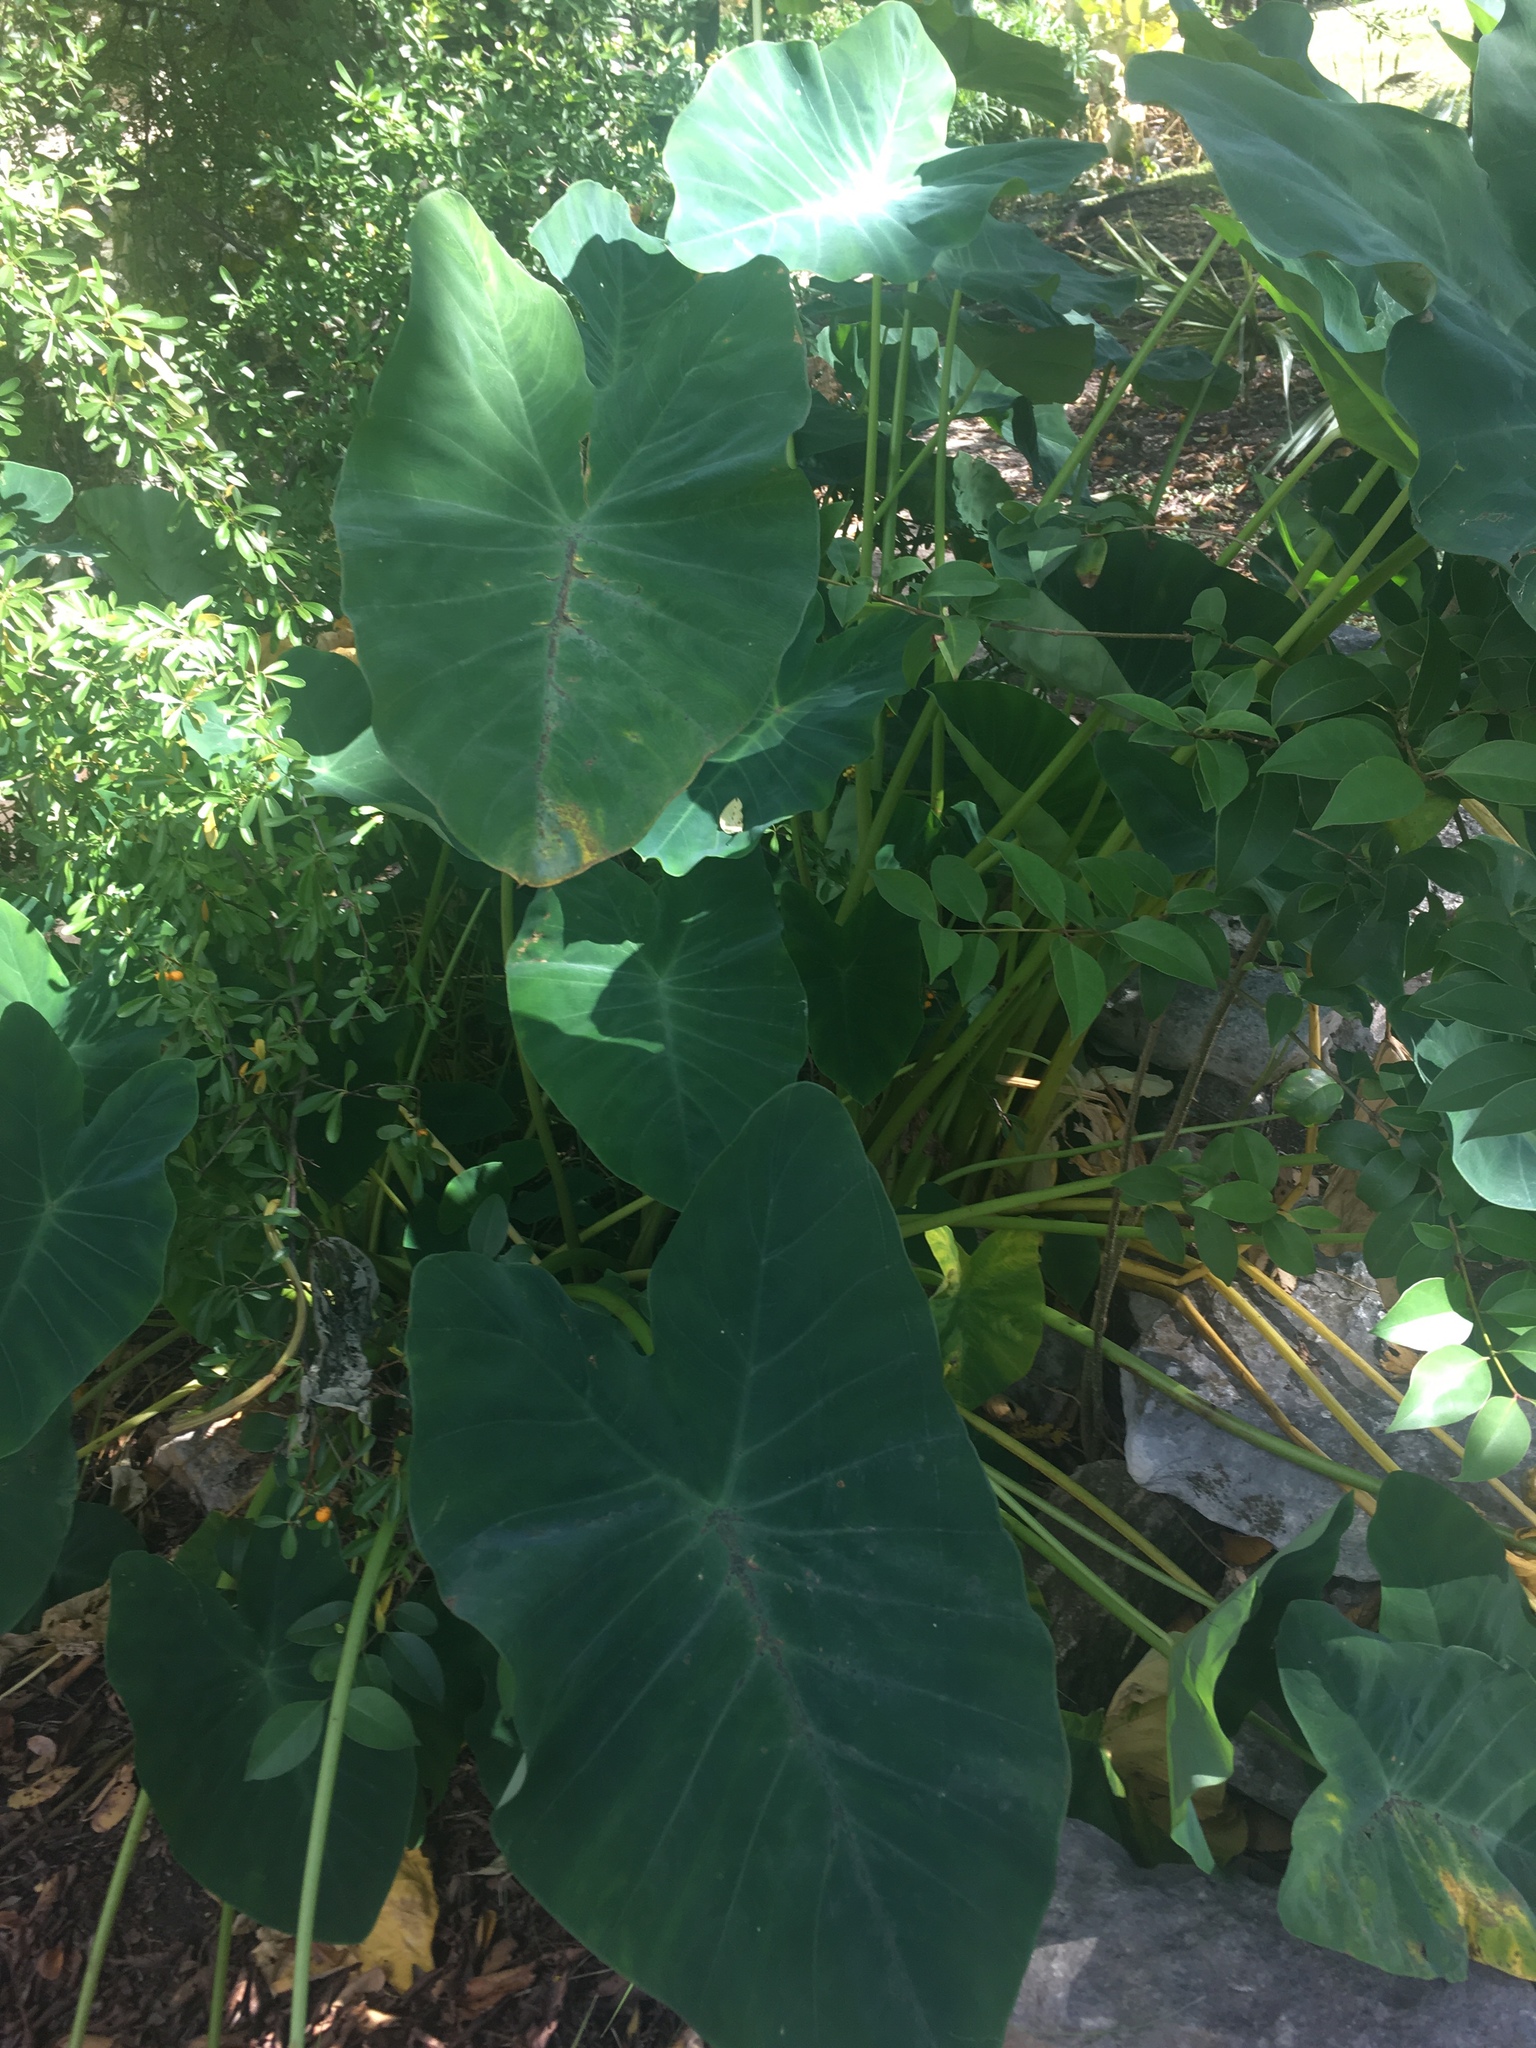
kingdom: Plantae
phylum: Tracheophyta
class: Liliopsida
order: Alismatales
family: Araceae
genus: Colocasia
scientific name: Colocasia esculenta
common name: Taro
